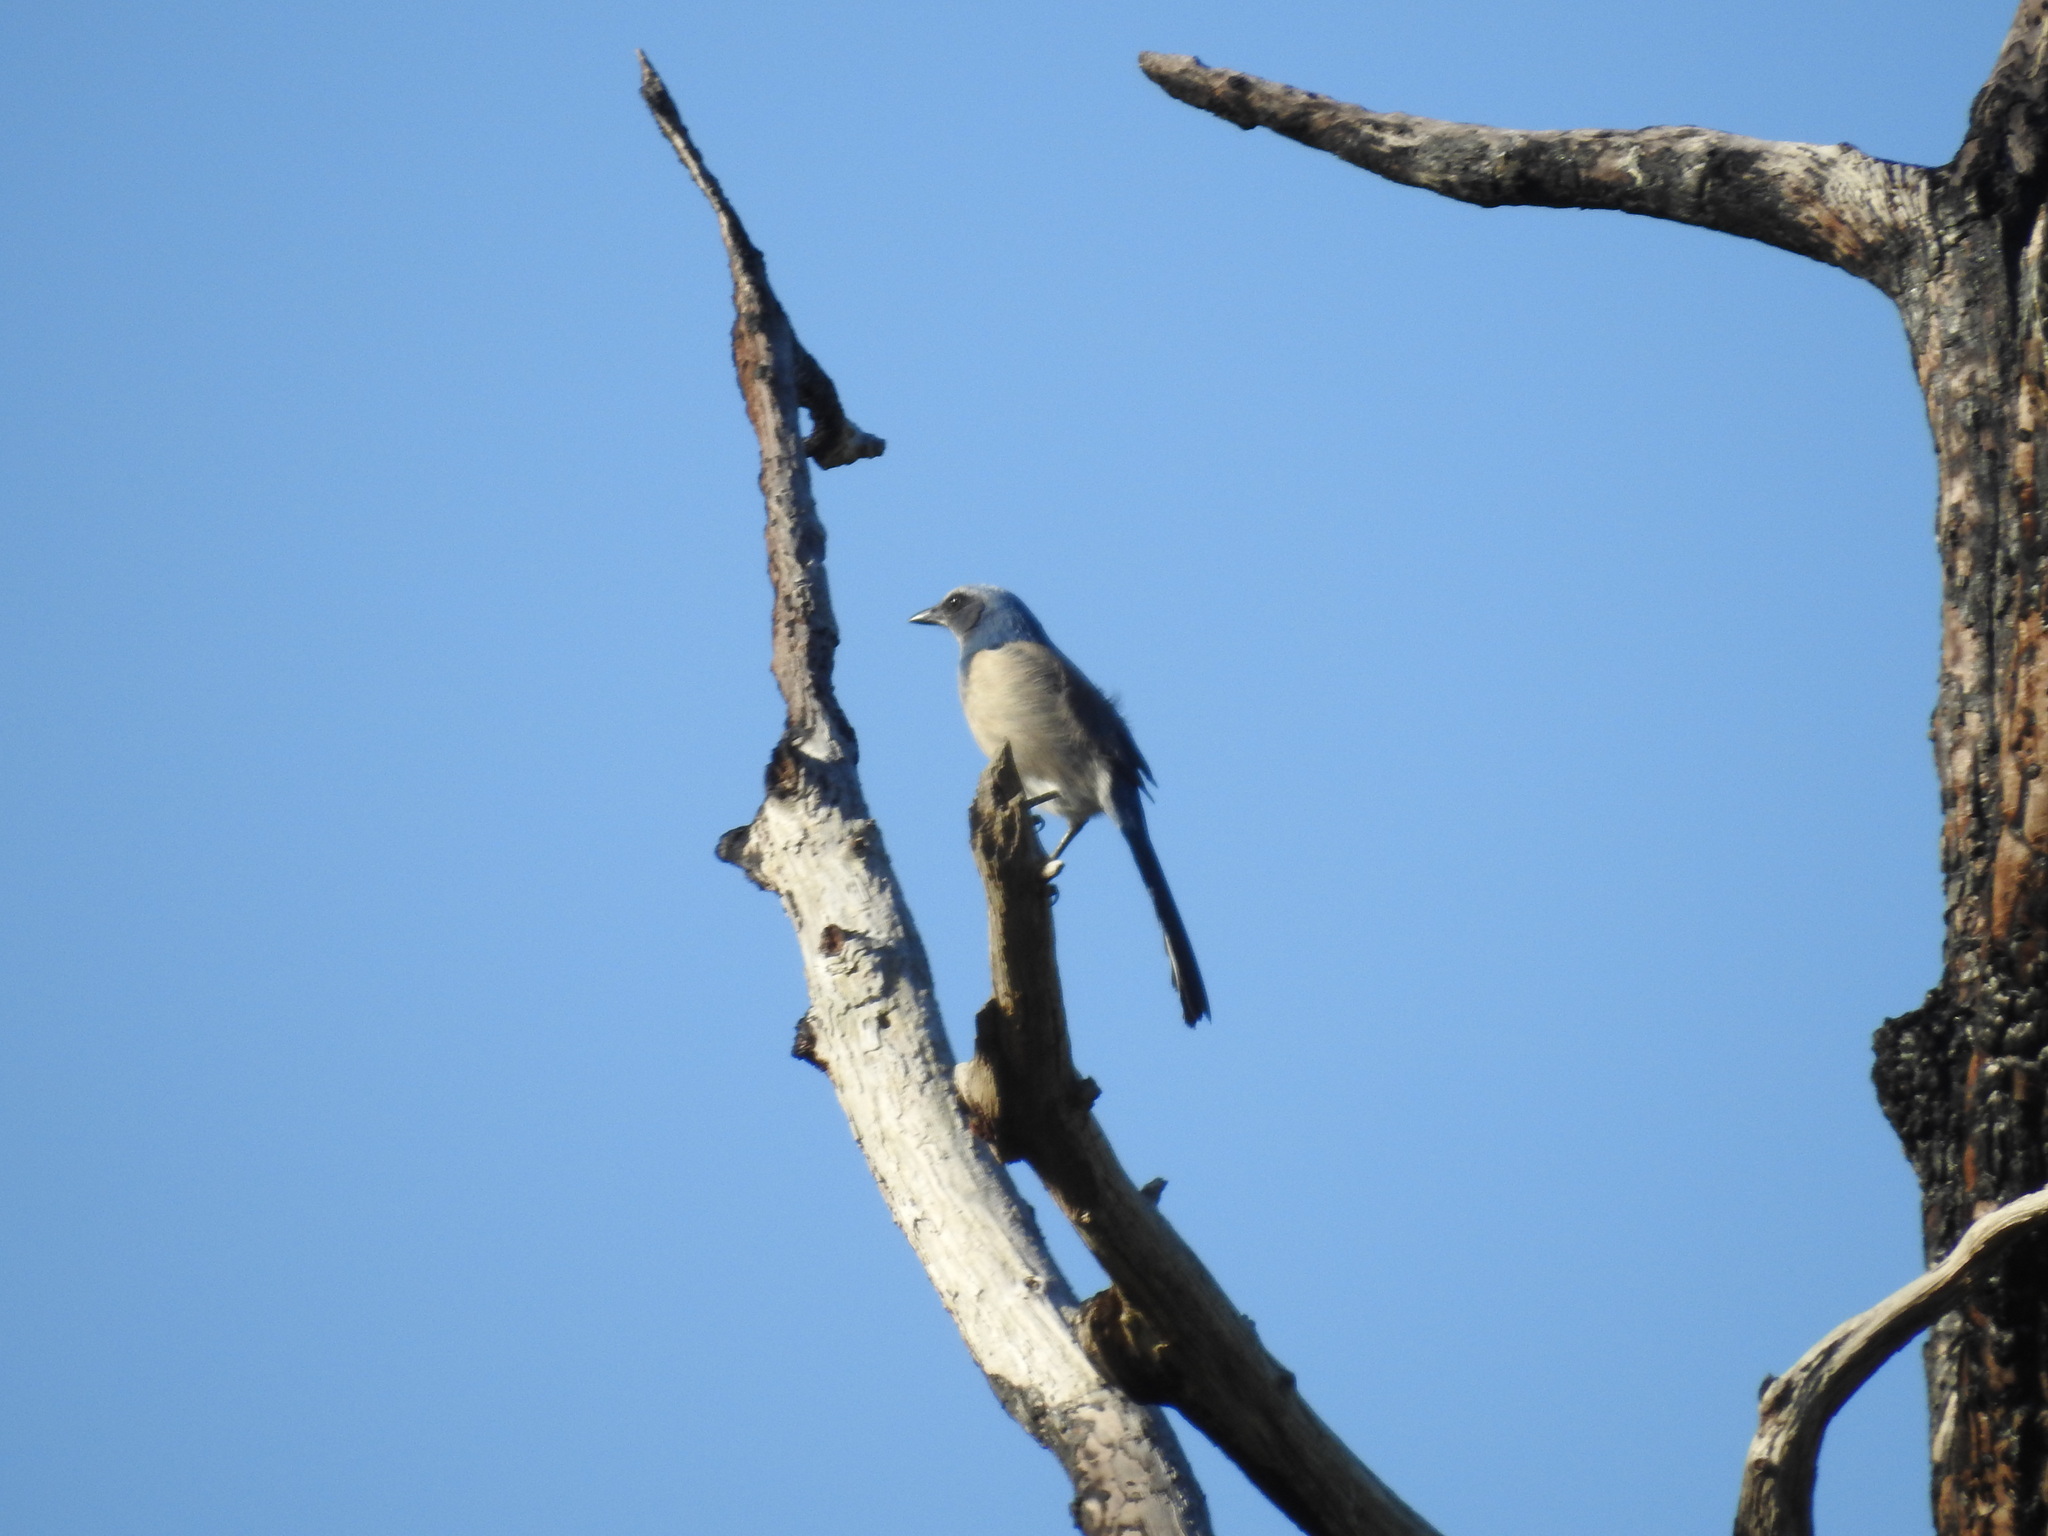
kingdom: Animalia
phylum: Chordata
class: Aves
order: Passeriformes
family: Corvidae
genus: Aphelocoma
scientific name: Aphelocoma coerulescens
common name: Florida scrub jay
